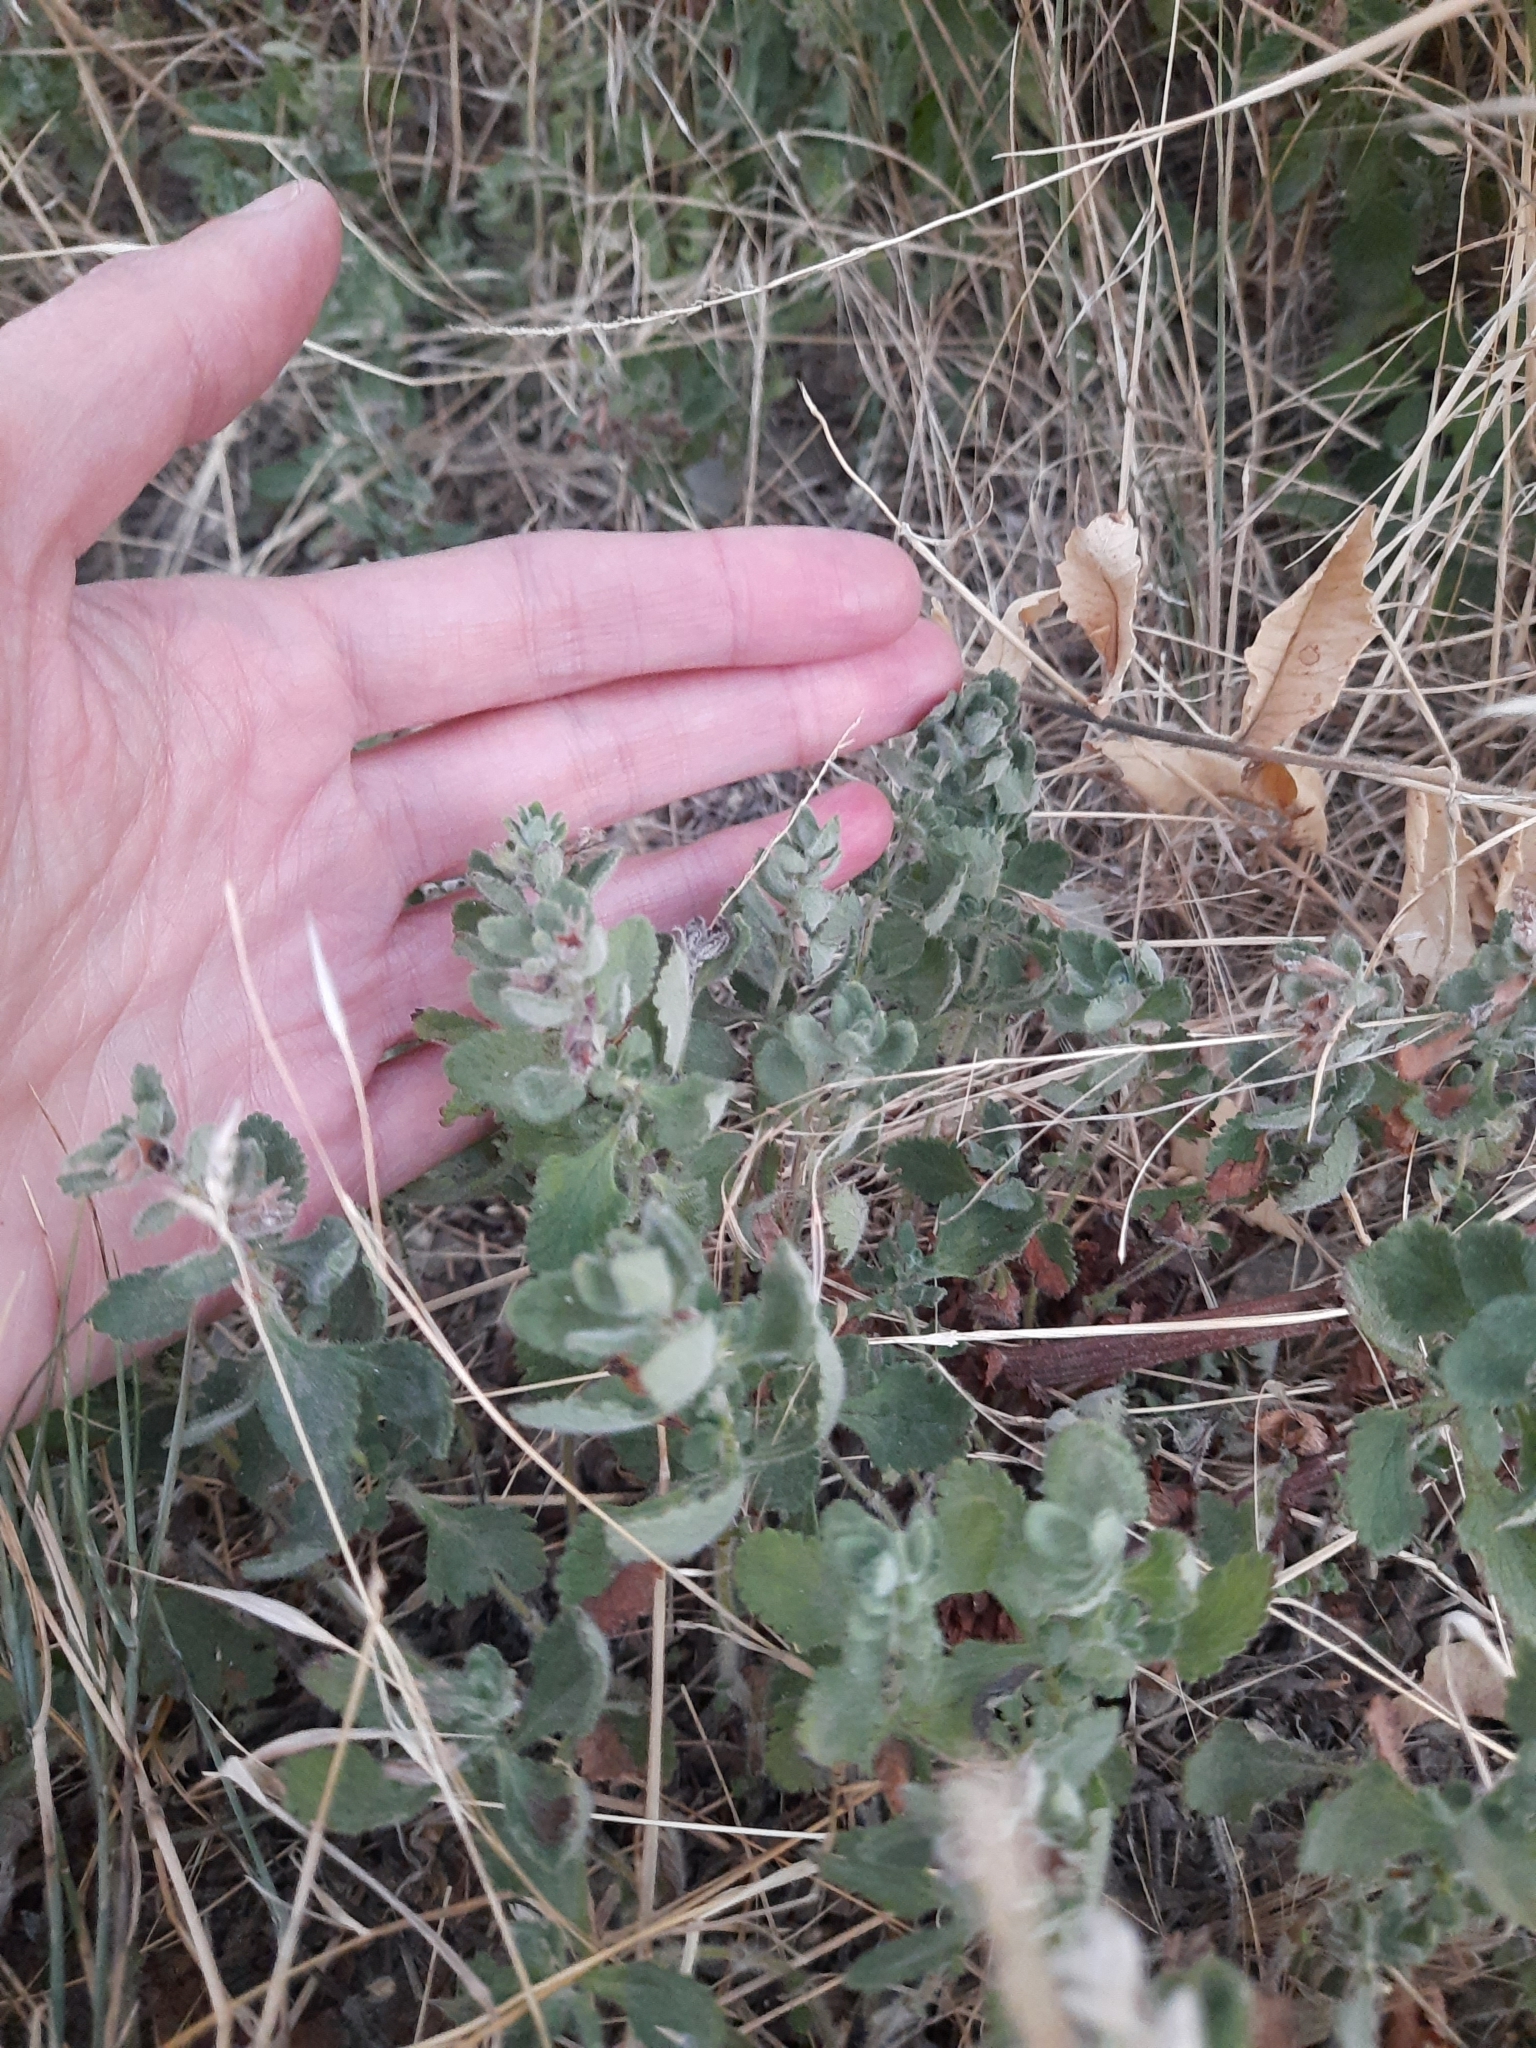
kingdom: Plantae
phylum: Tracheophyta
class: Magnoliopsida
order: Lamiales
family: Lamiaceae
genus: Teucrium
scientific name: Teucrium chamaedrys
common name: Wall germander
